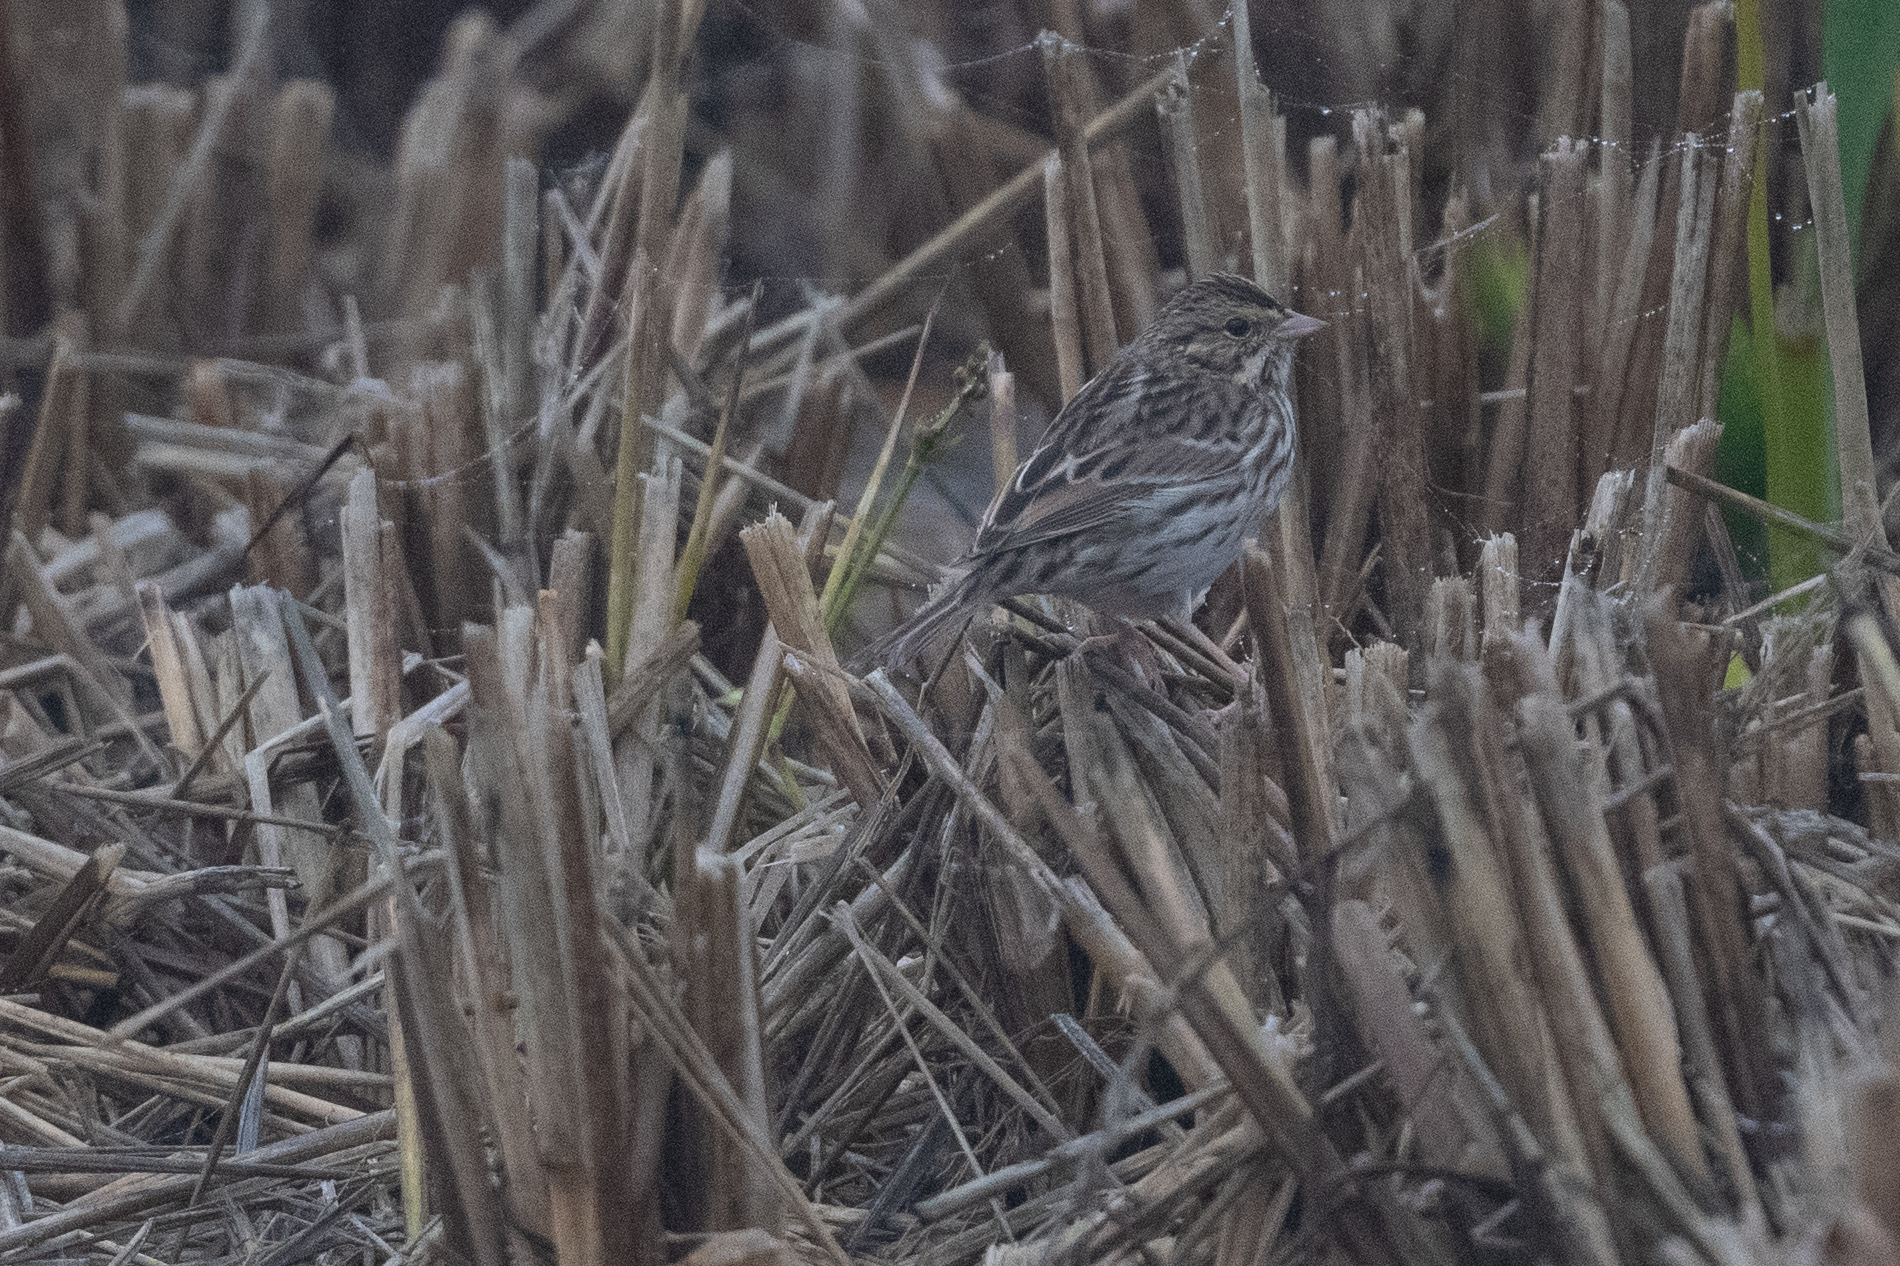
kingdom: Animalia
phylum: Chordata
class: Aves
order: Passeriformes
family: Passerellidae
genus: Passerculus
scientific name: Passerculus sandwichensis
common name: Savannah sparrow
